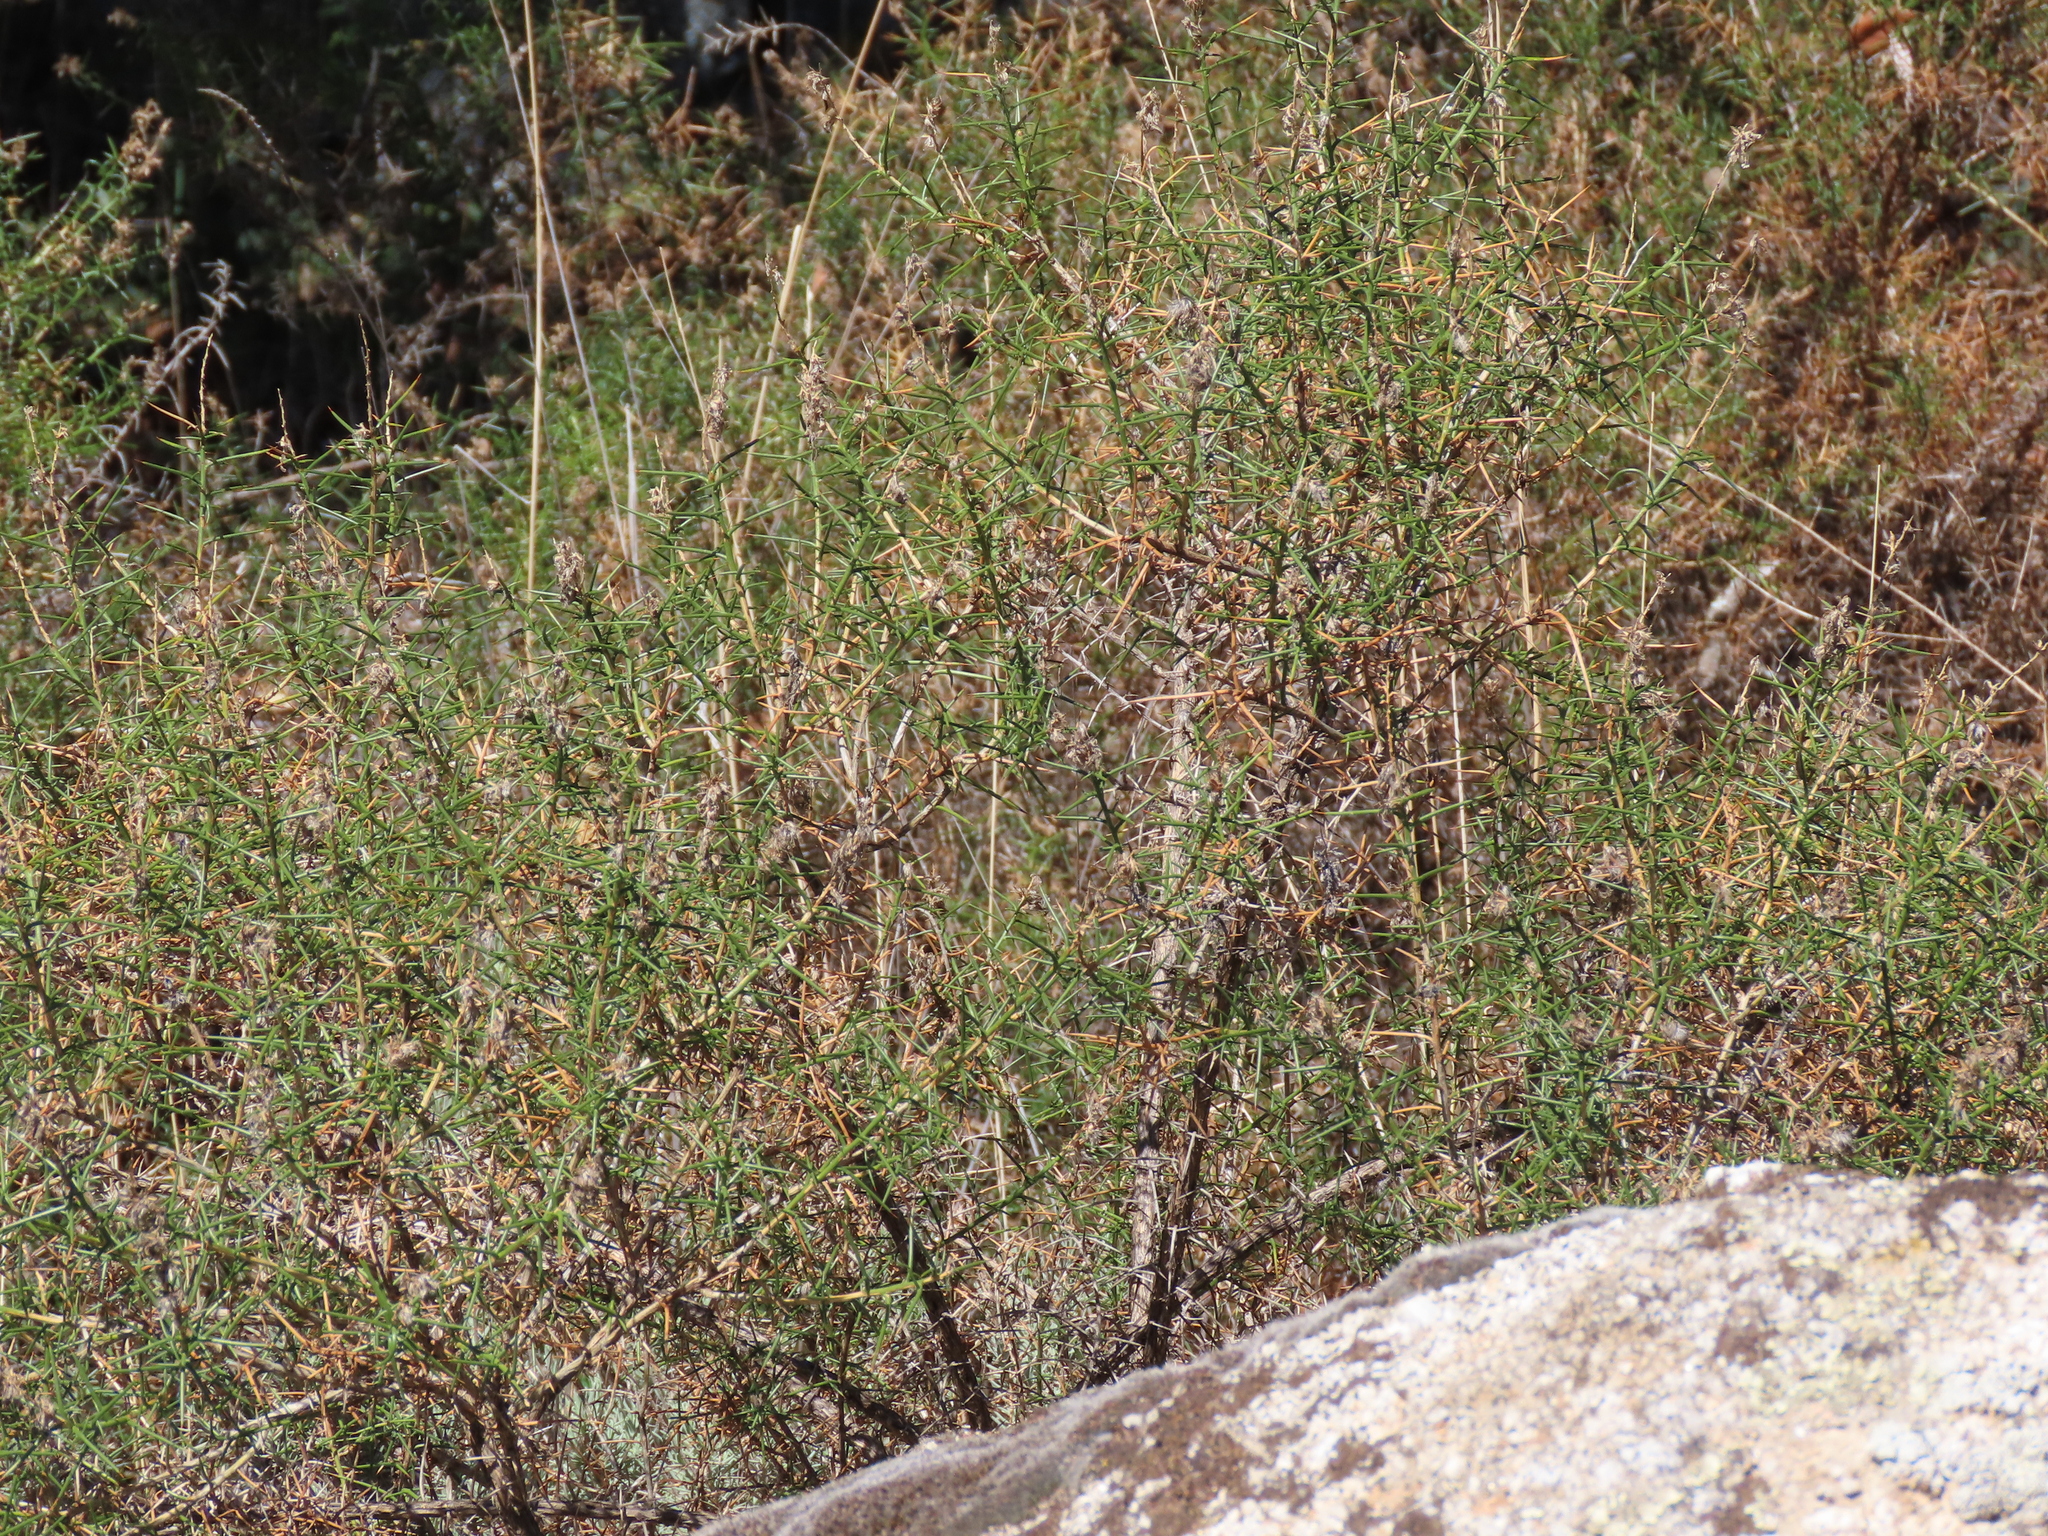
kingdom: Plantae
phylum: Tracheophyta
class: Magnoliopsida
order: Fabales
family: Fabaceae
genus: Genista
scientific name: Genista hirsuta
